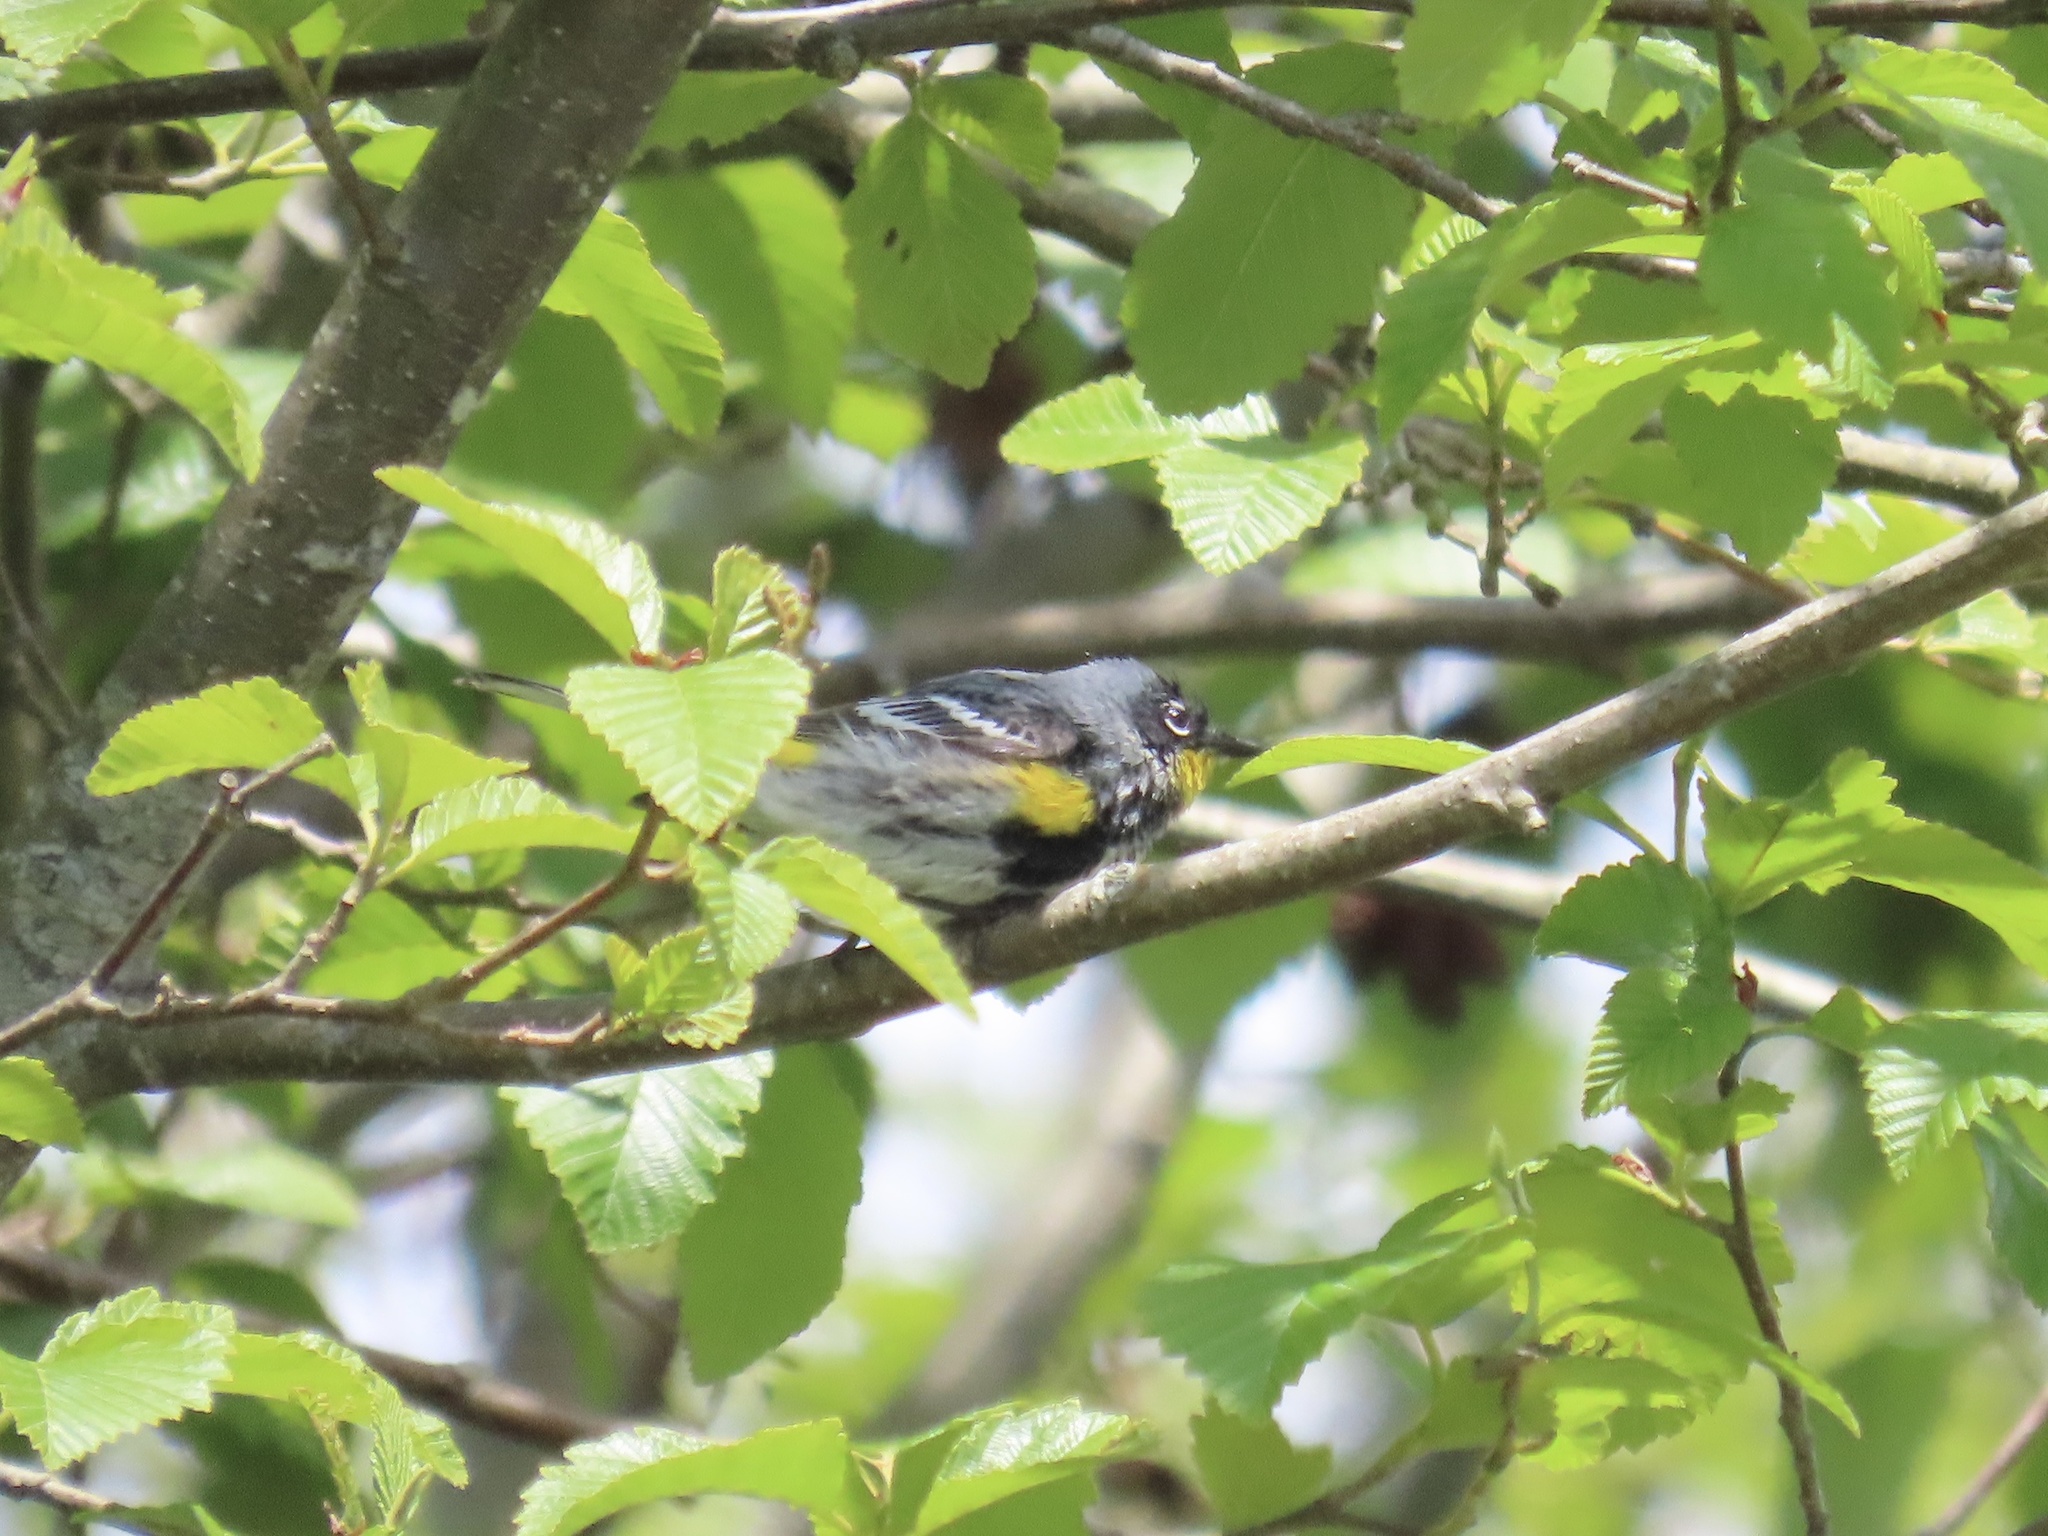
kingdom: Animalia
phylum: Chordata
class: Aves
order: Passeriformes
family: Parulidae
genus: Setophaga
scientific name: Setophaga auduboni
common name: Audubon's warbler
